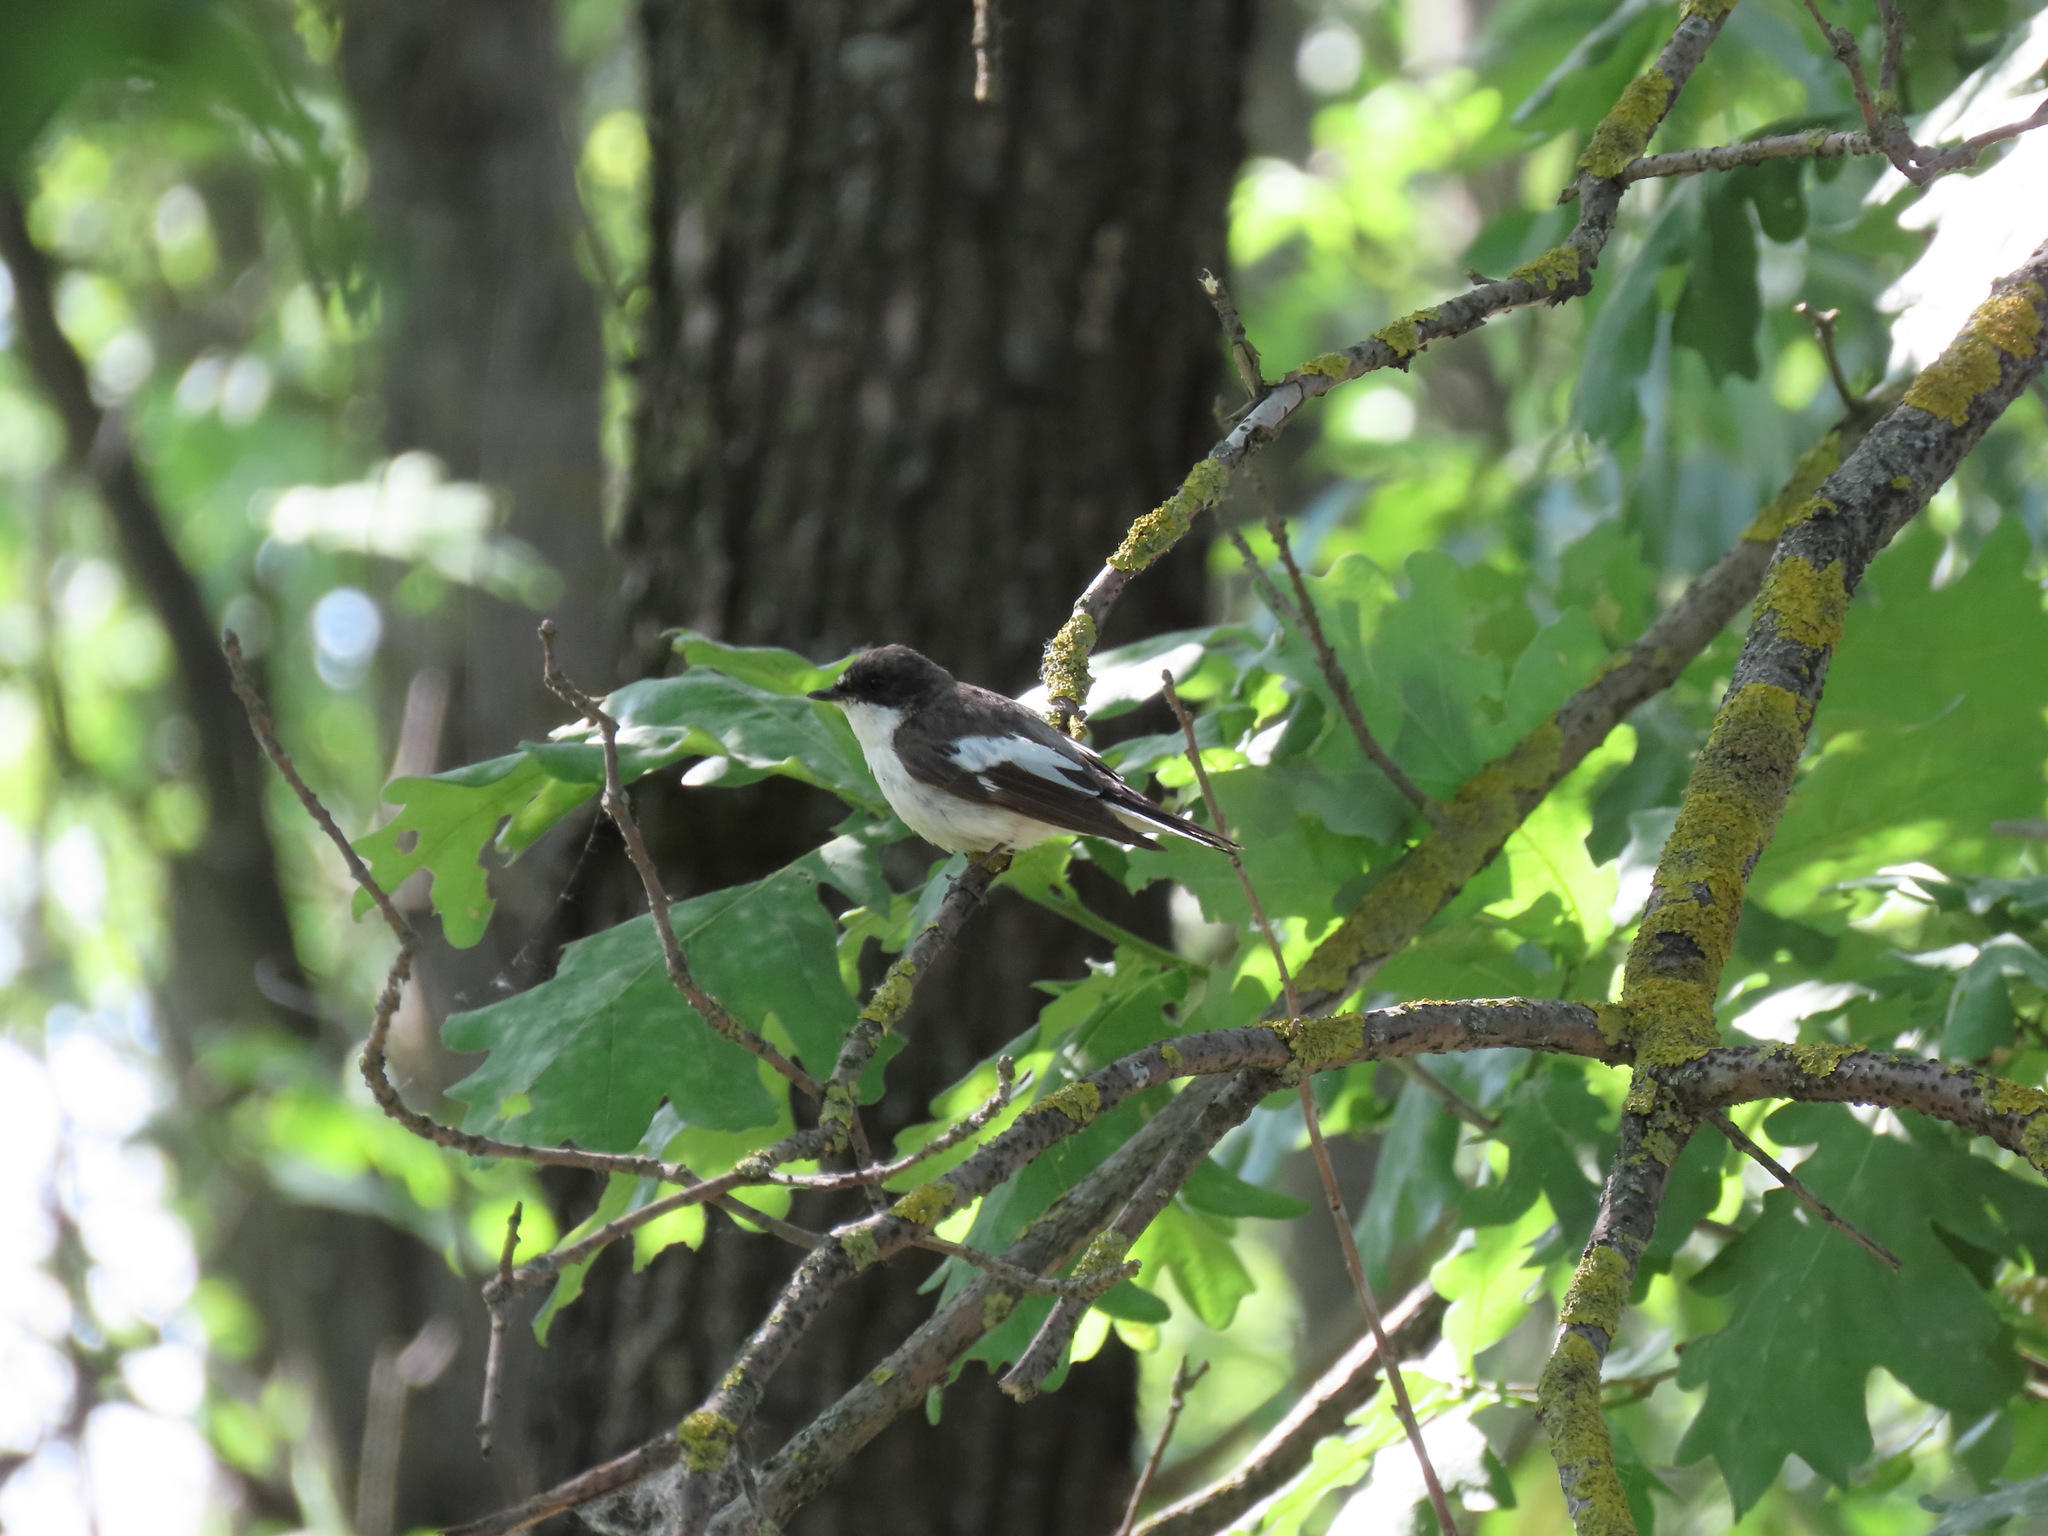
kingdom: Animalia
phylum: Chordata
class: Aves
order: Passeriformes
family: Muscicapidae
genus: Ficedula
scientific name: Ficedula hypoleuca
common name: European pied flycatcher
